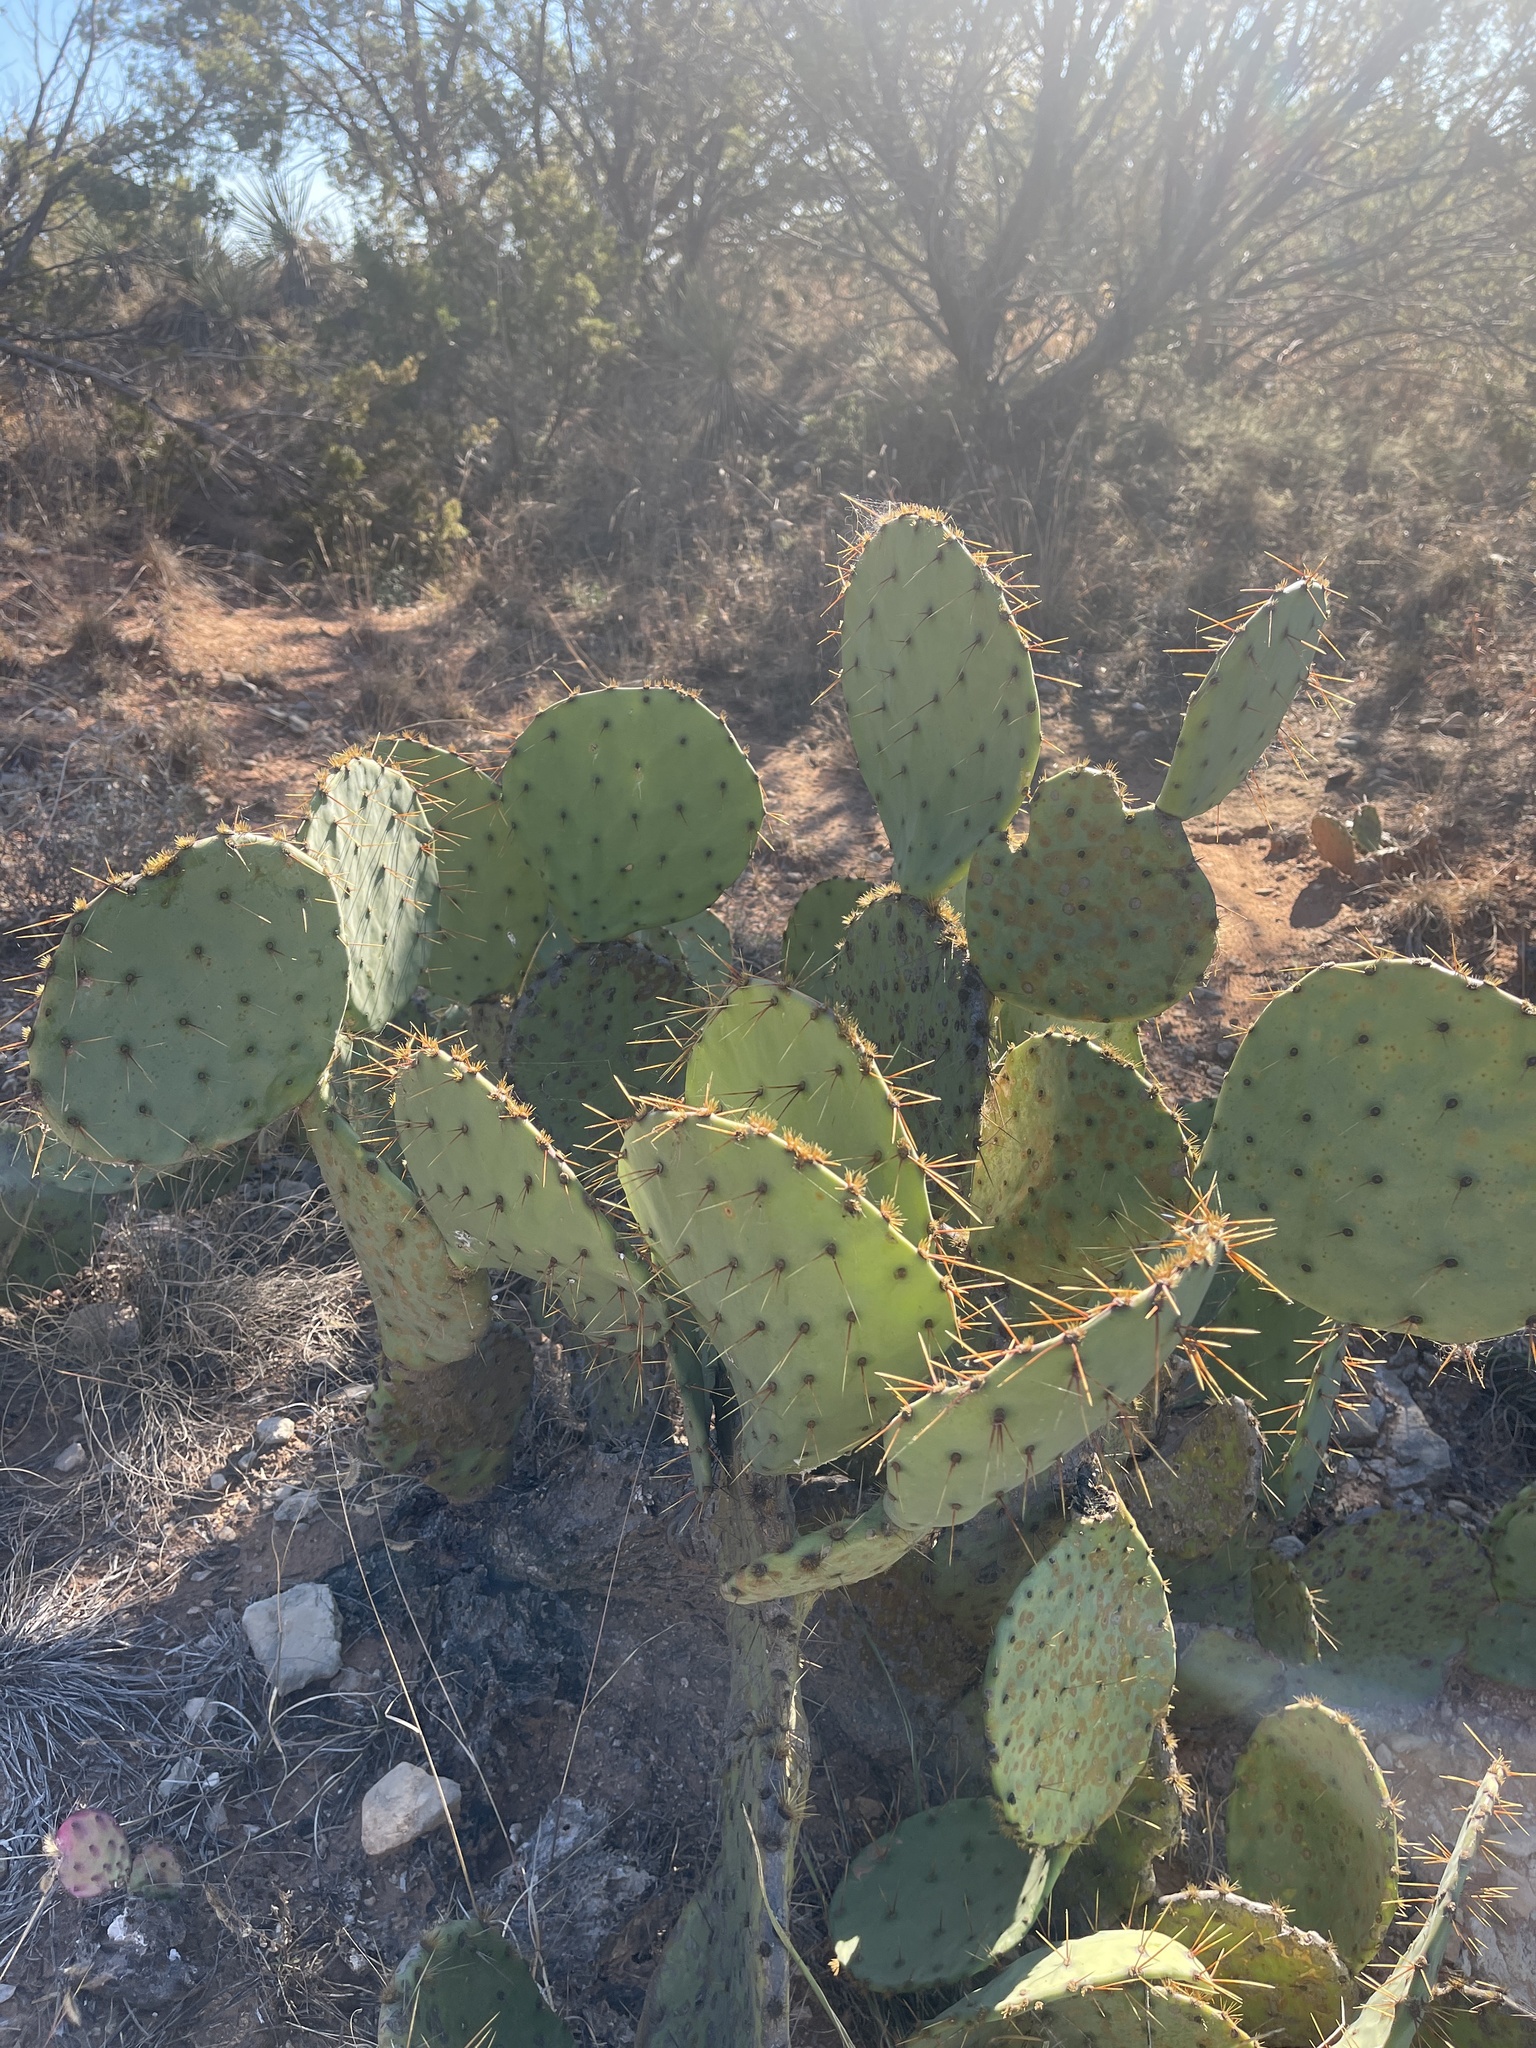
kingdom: Plantae
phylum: Tracheophyta
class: Magnoliopsida
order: Caryophyllales
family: Cactaceae
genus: Opuntia
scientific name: Opuntia engelmannii
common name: Cactus-apple
